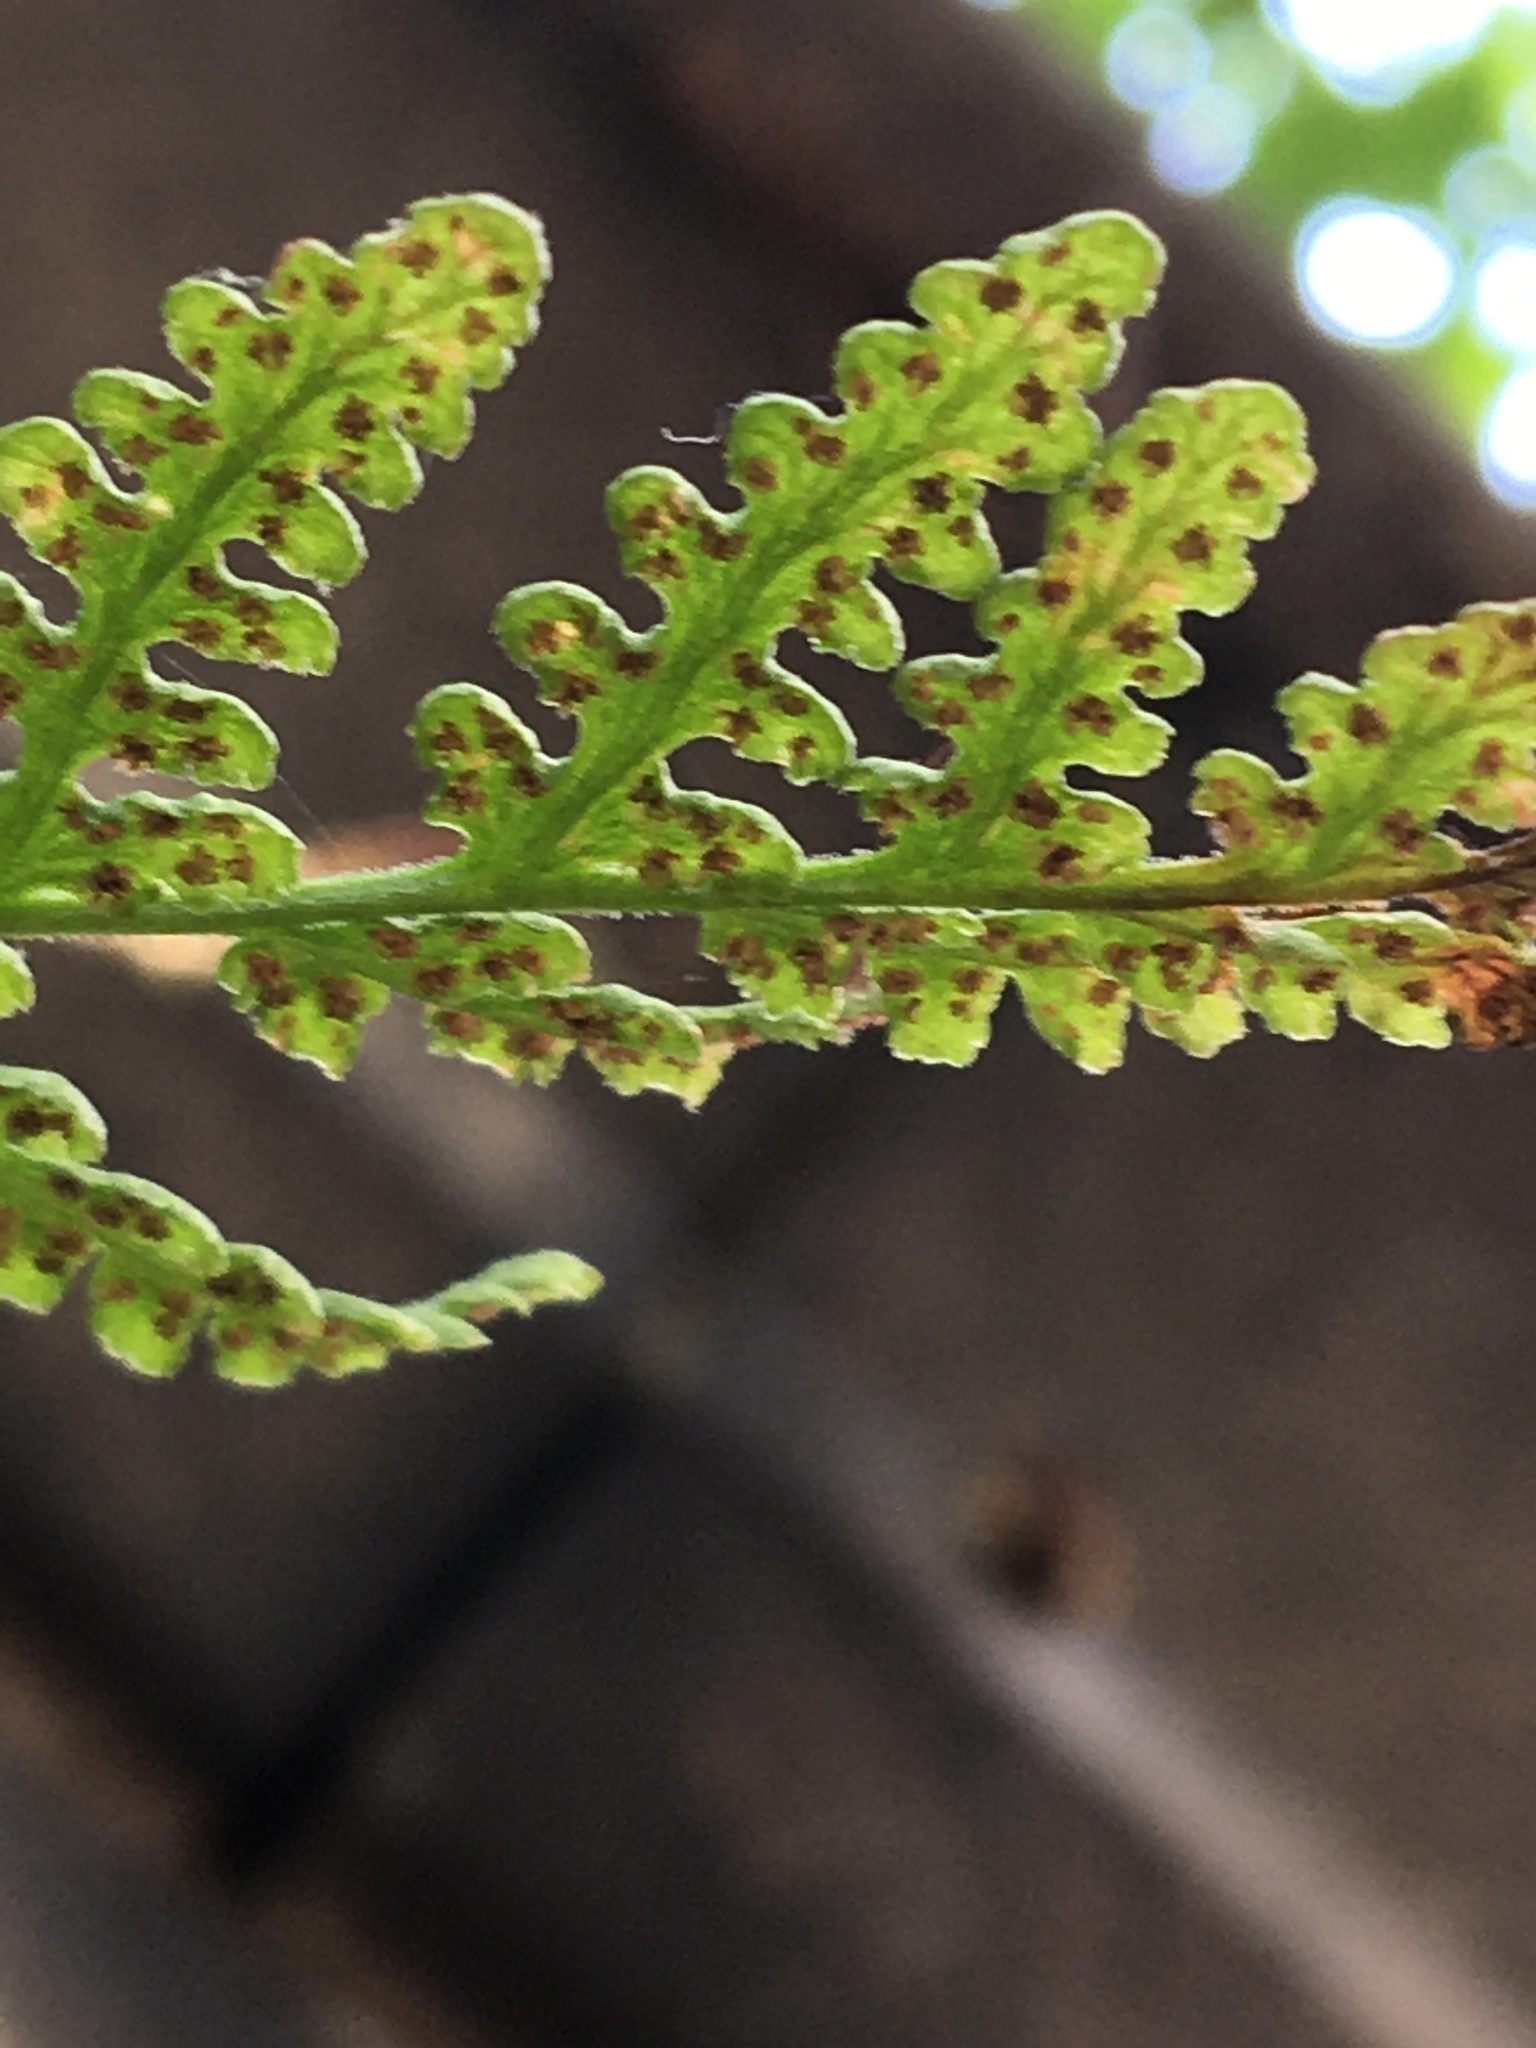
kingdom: Plantae
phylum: Tracheophyta
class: Polypodiopsida
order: Polypodiales
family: Woodsiaceae
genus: Physematium
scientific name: Physematium obtusum
